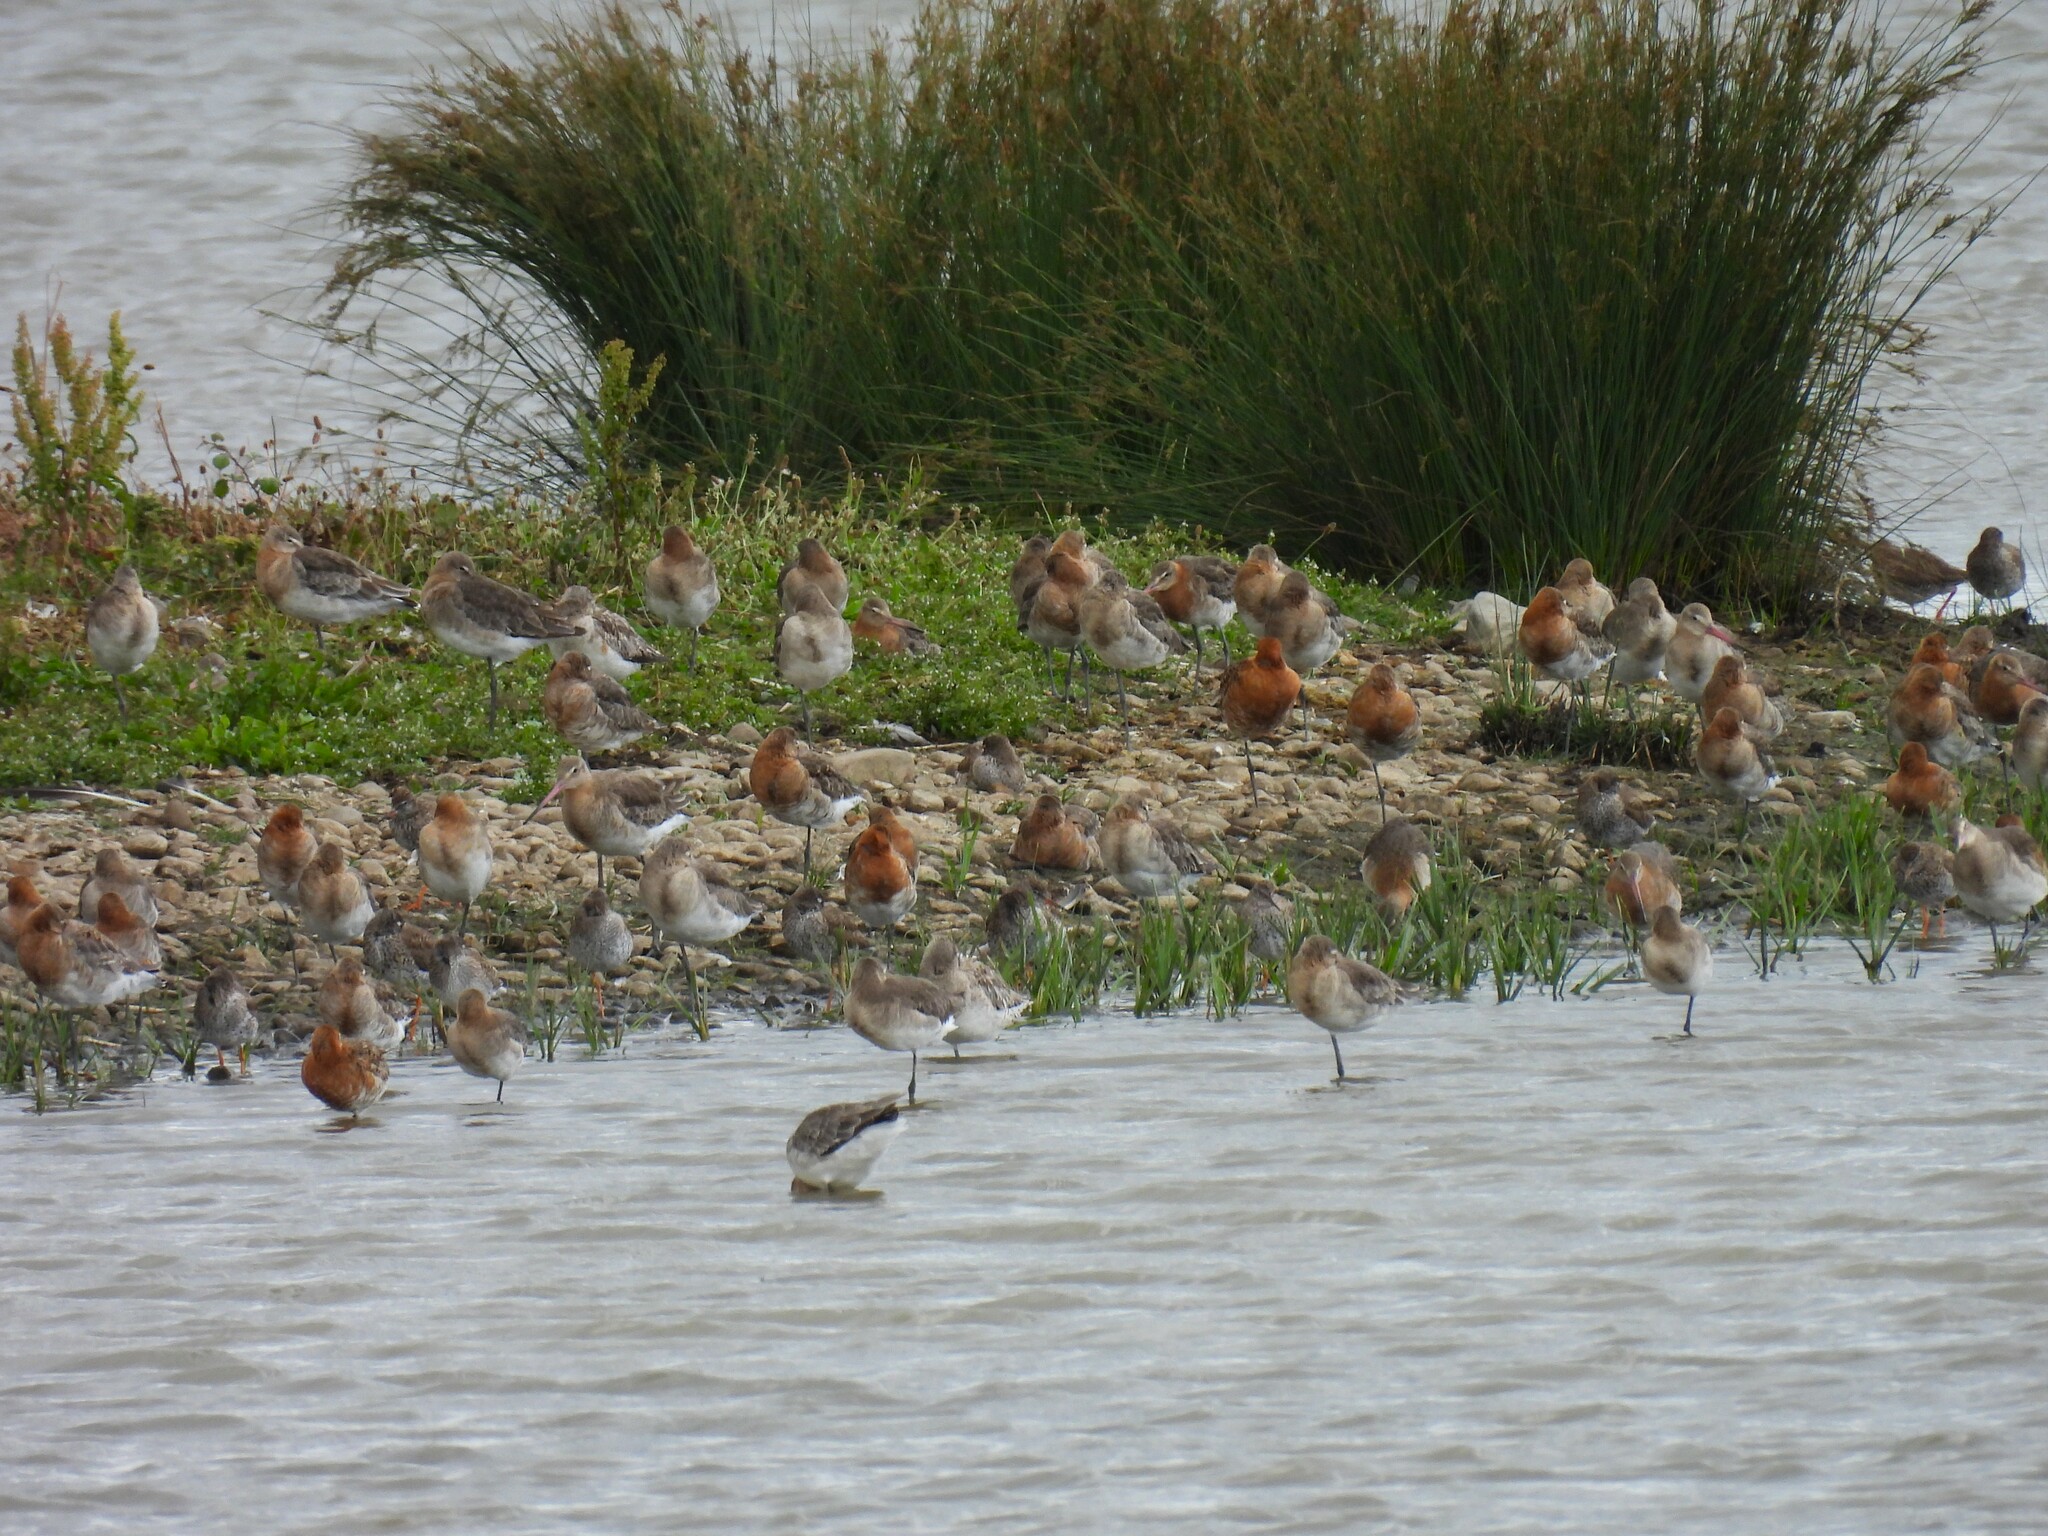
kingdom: Animalia
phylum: Chordata
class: Aves
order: Charadriiformes
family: Scolopacidae
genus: Limosa
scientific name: Limosa limosa
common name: Black-tailed godwit
